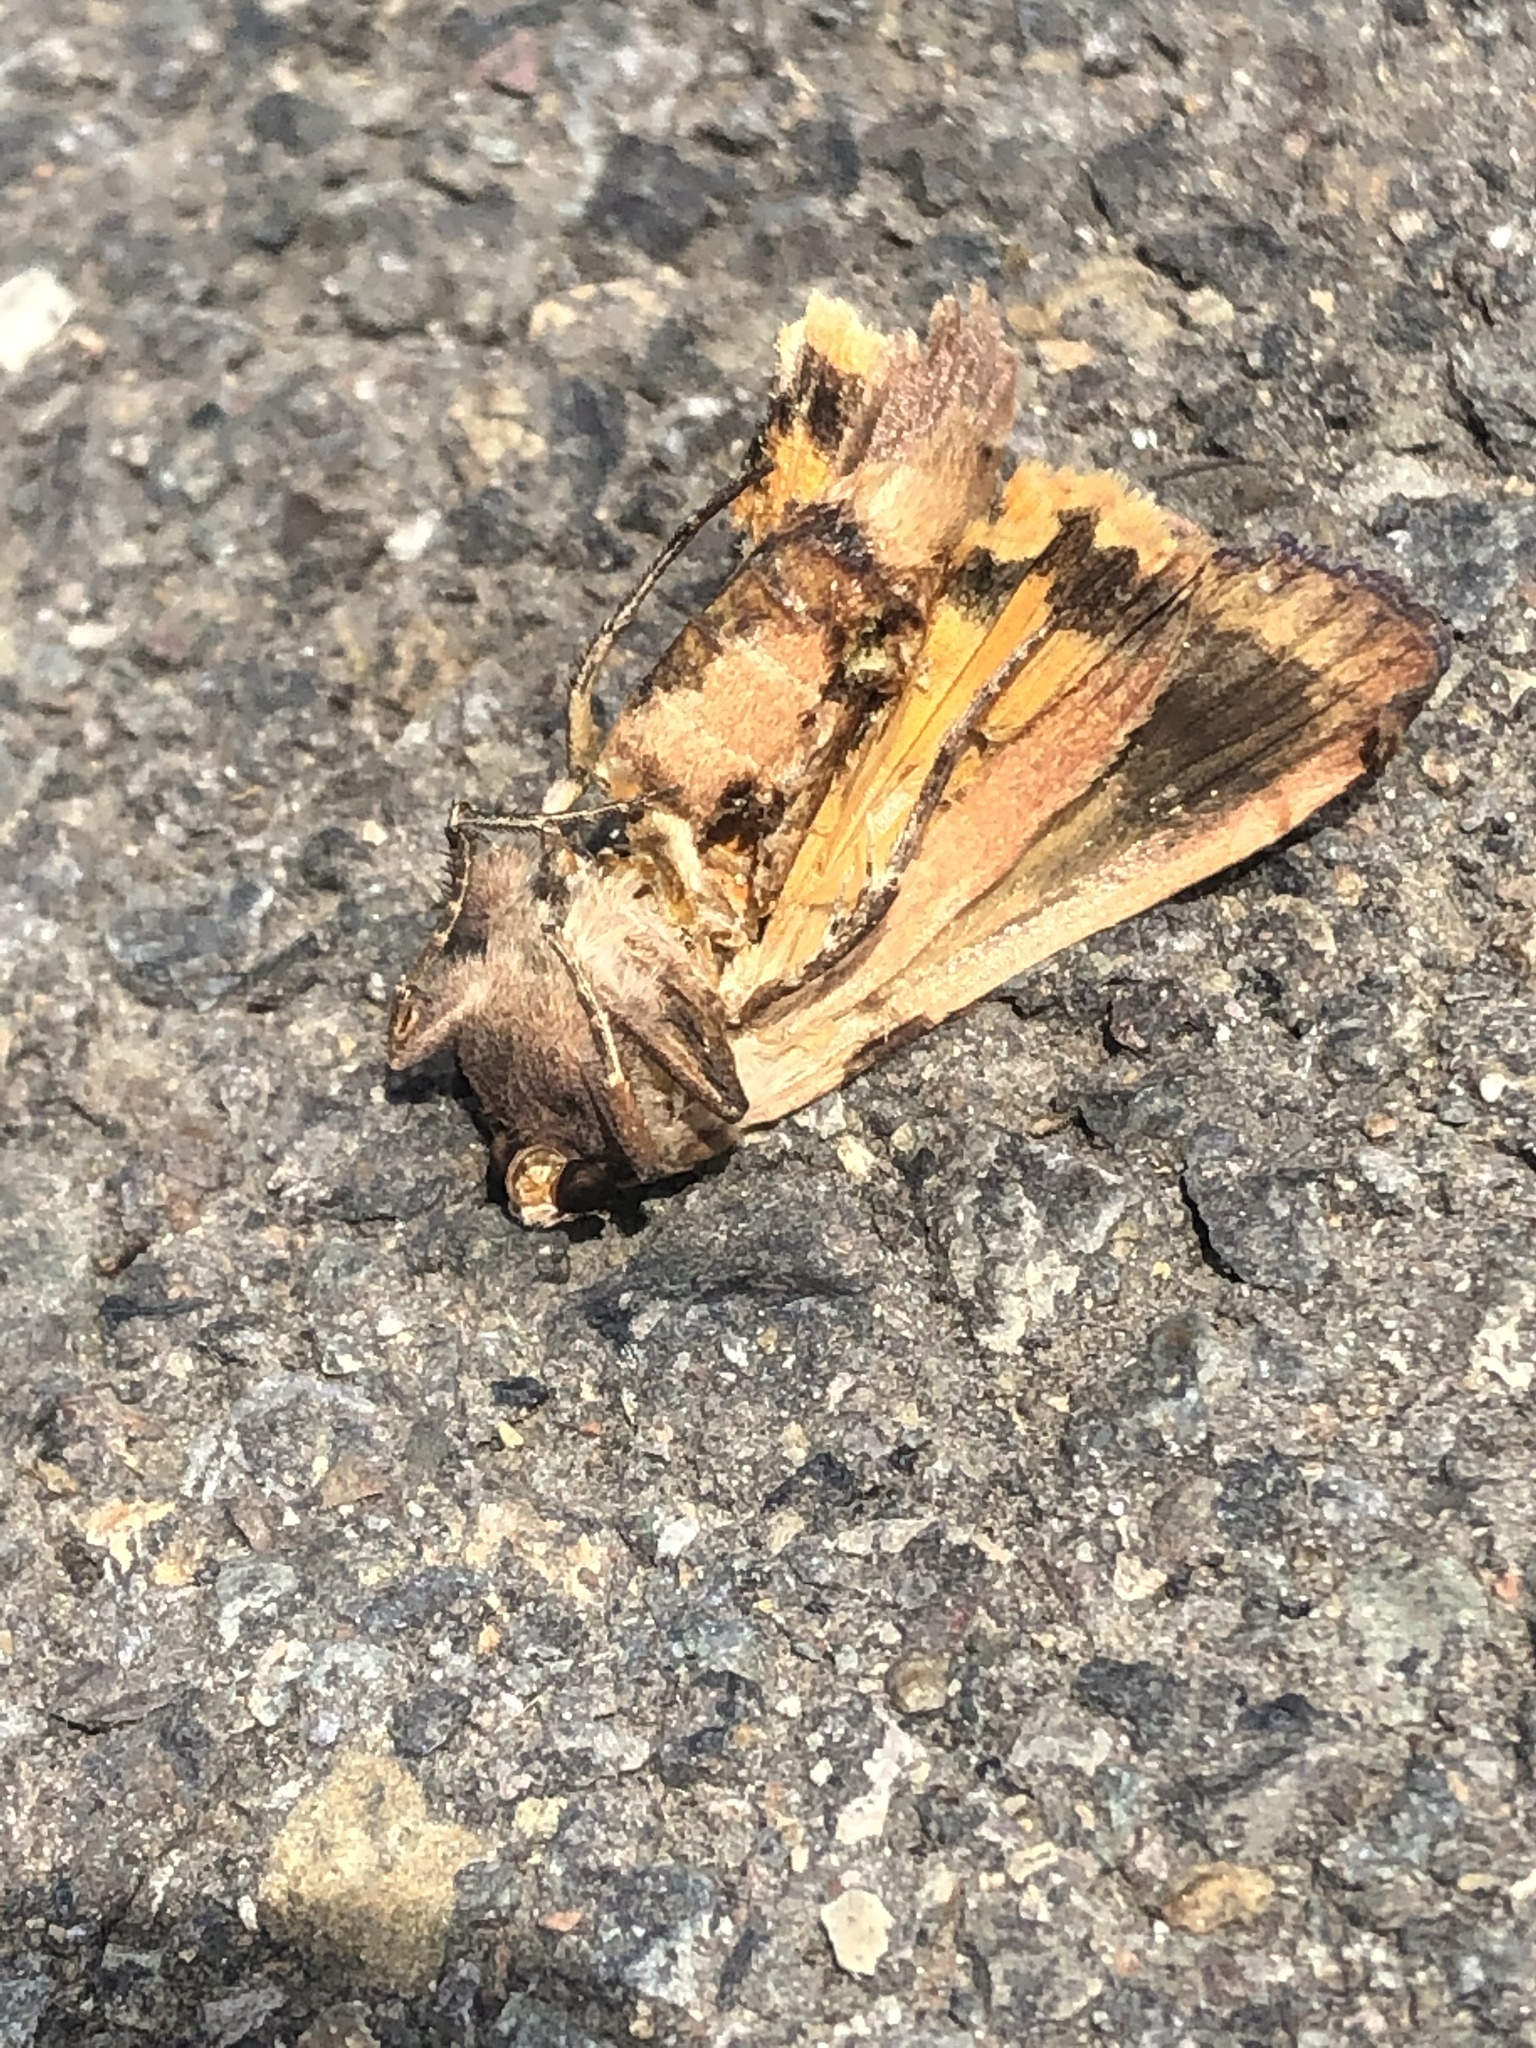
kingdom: Animalia
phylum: Arthropoda
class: Insecta
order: Lepidoptera
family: Noctuidae
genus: Noctua
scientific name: Noctua pronuba
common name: Large yellow underwing
